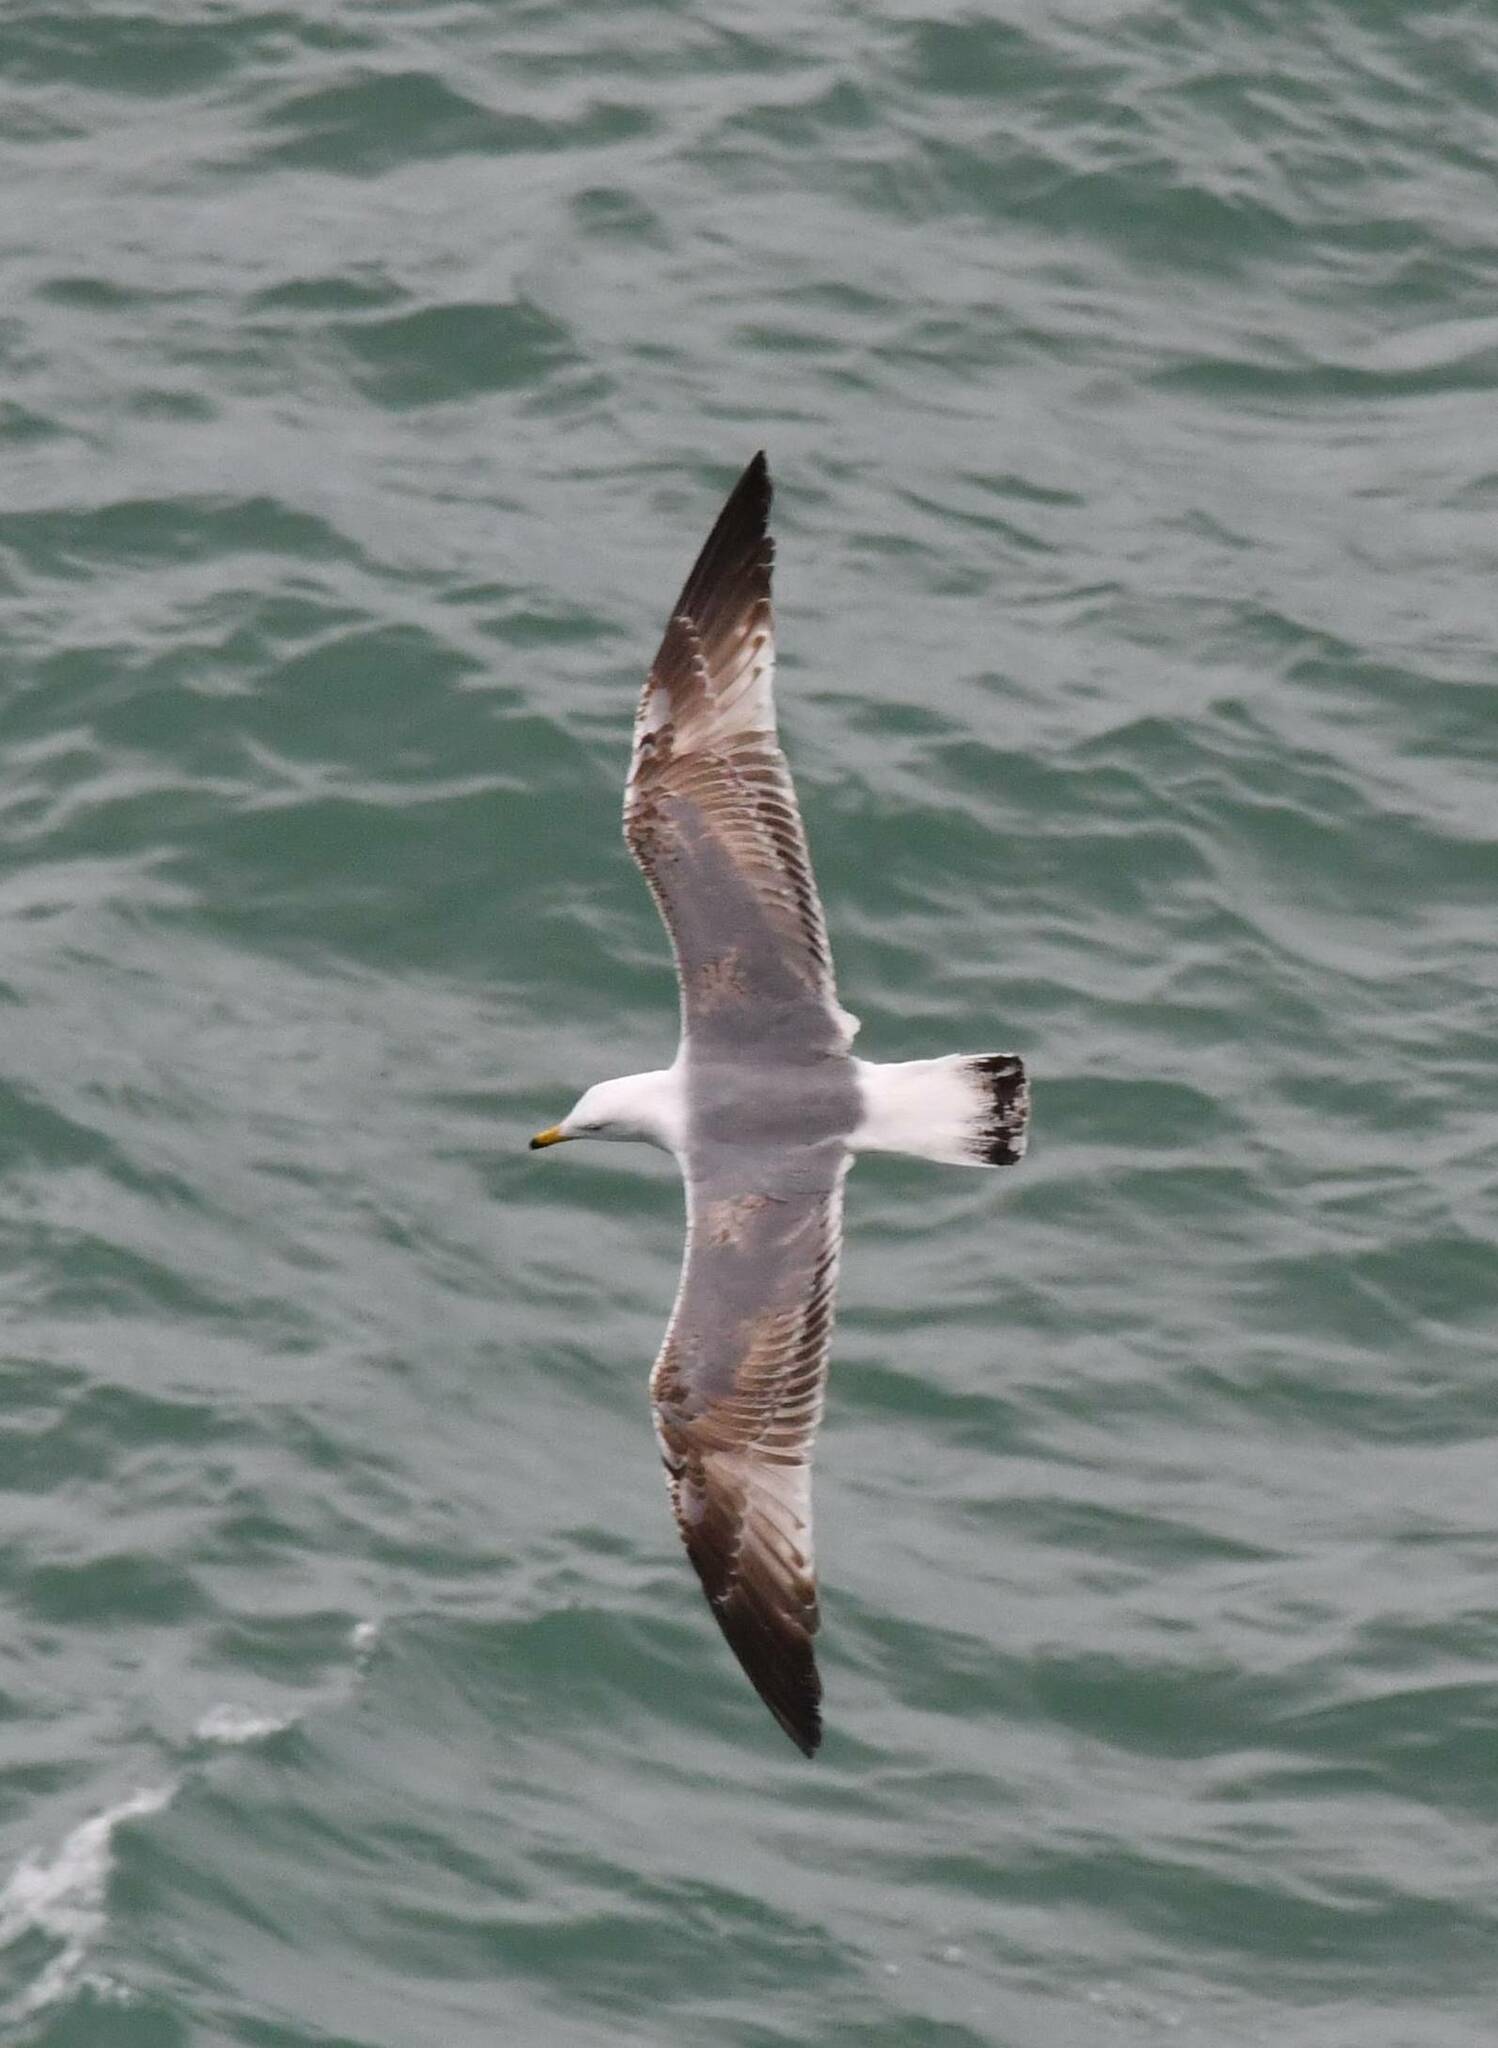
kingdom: Animalia
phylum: Chordata
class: Aves
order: Charadriiformes
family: Laridae
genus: Larus
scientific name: Larus michahellis
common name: Yellow-legged gull
